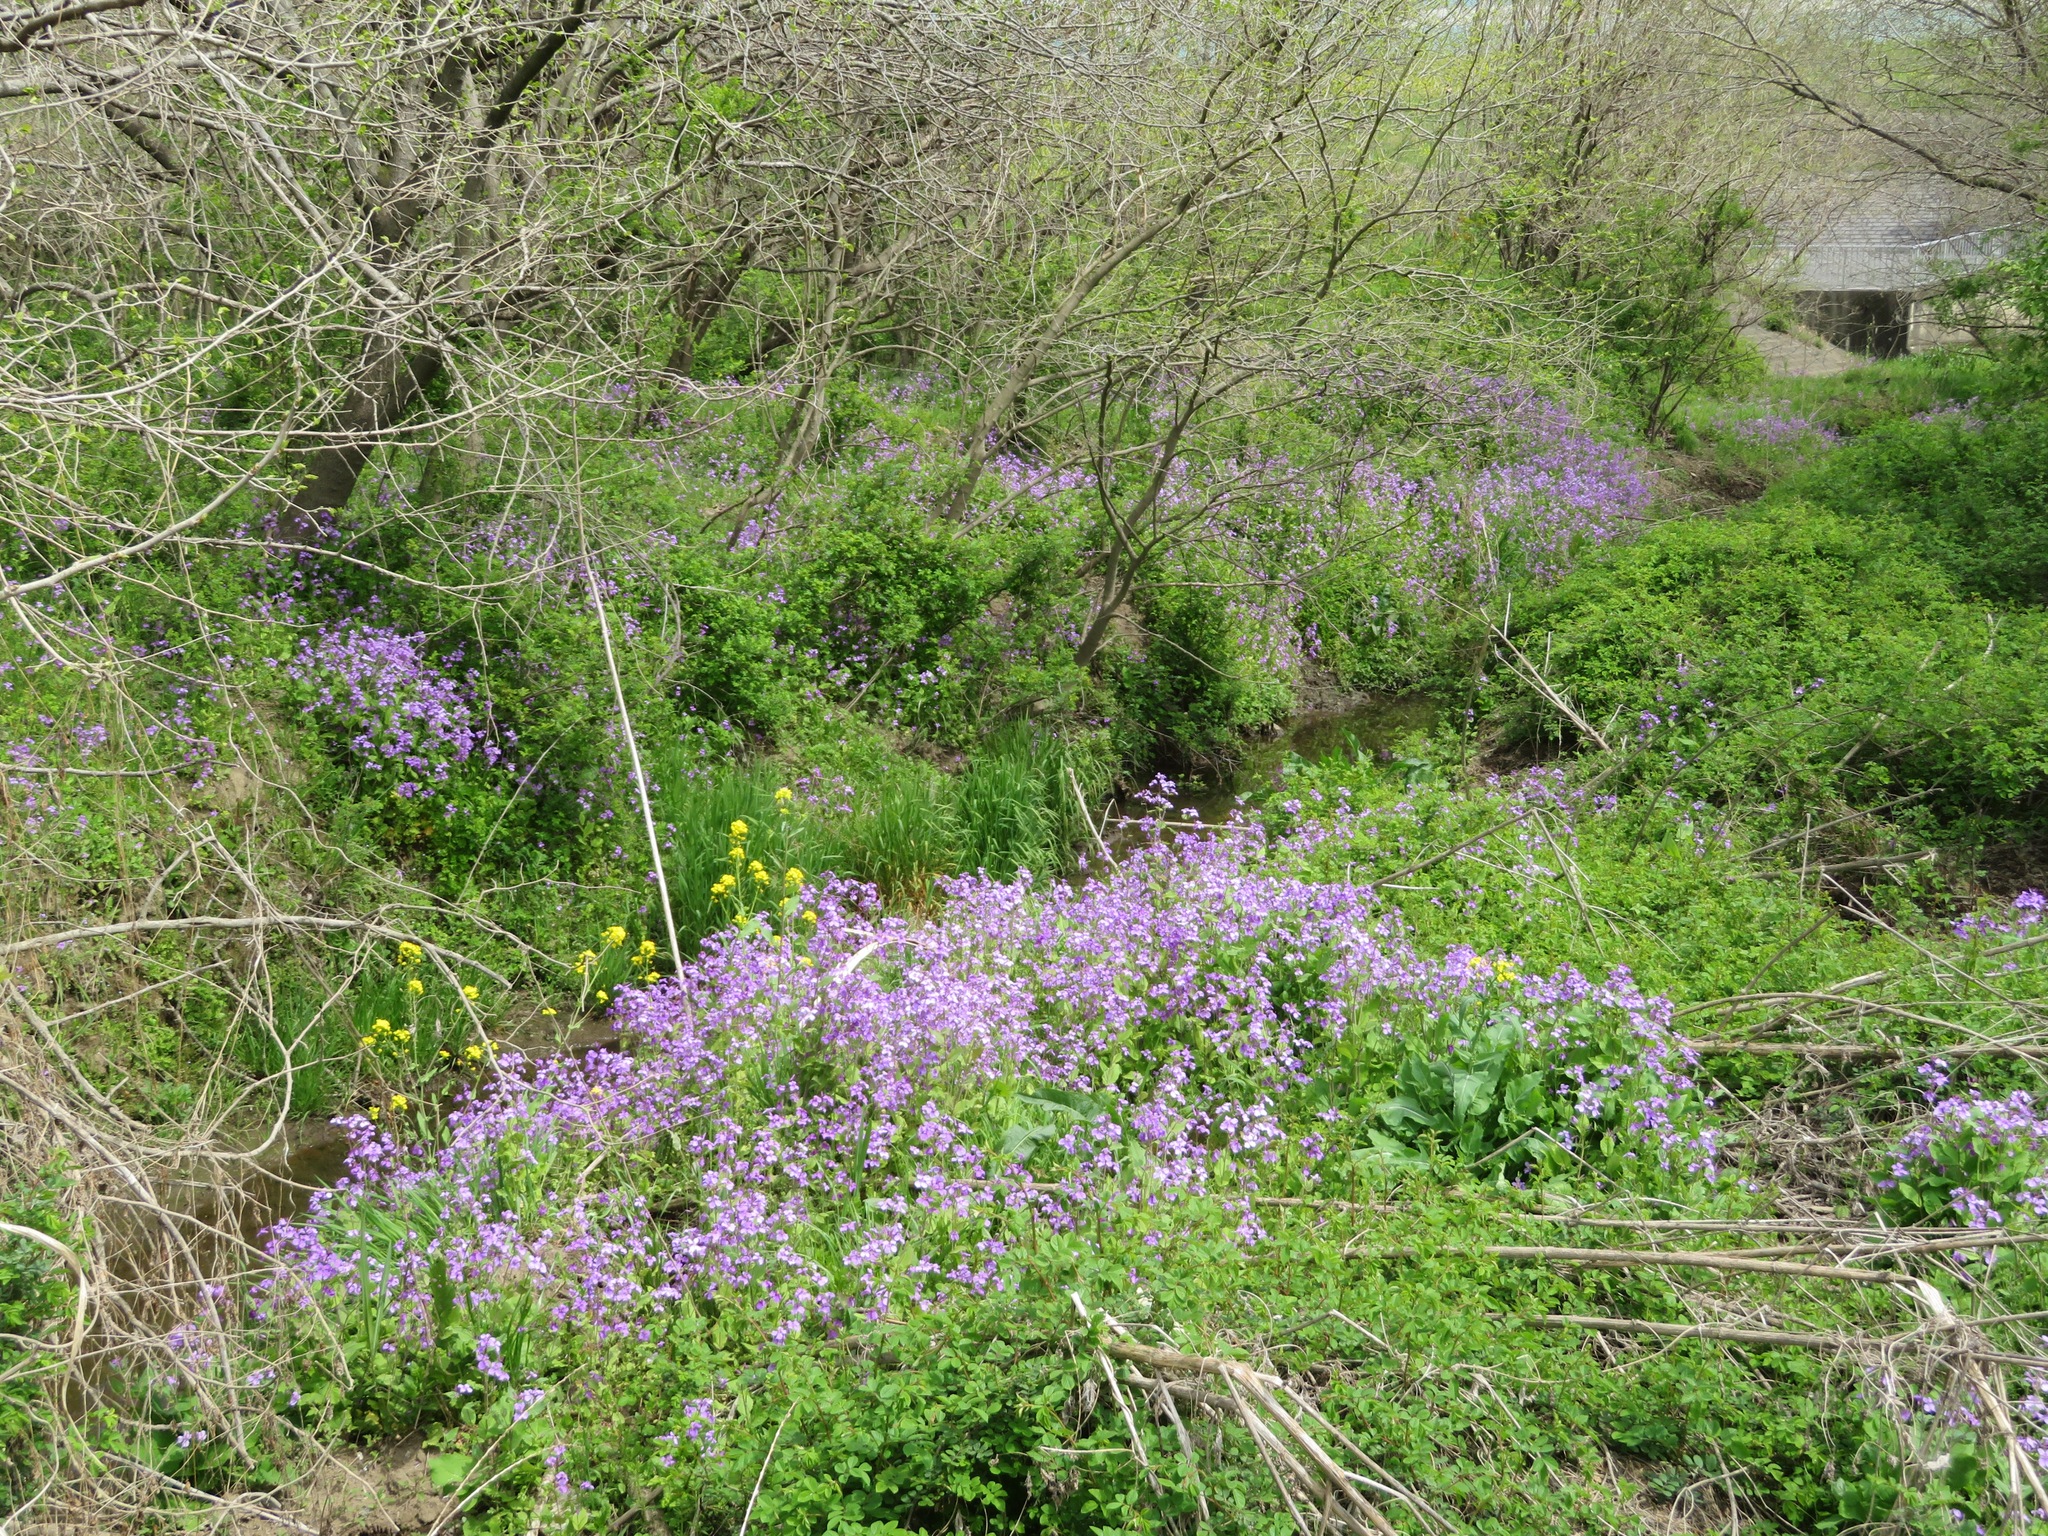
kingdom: Plantae
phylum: Tracheophyta
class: Magnoliopsida
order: Brassicales
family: Brassicaceae
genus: Orychophragmus
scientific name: Orychophragmus violaceus
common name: Mustard
